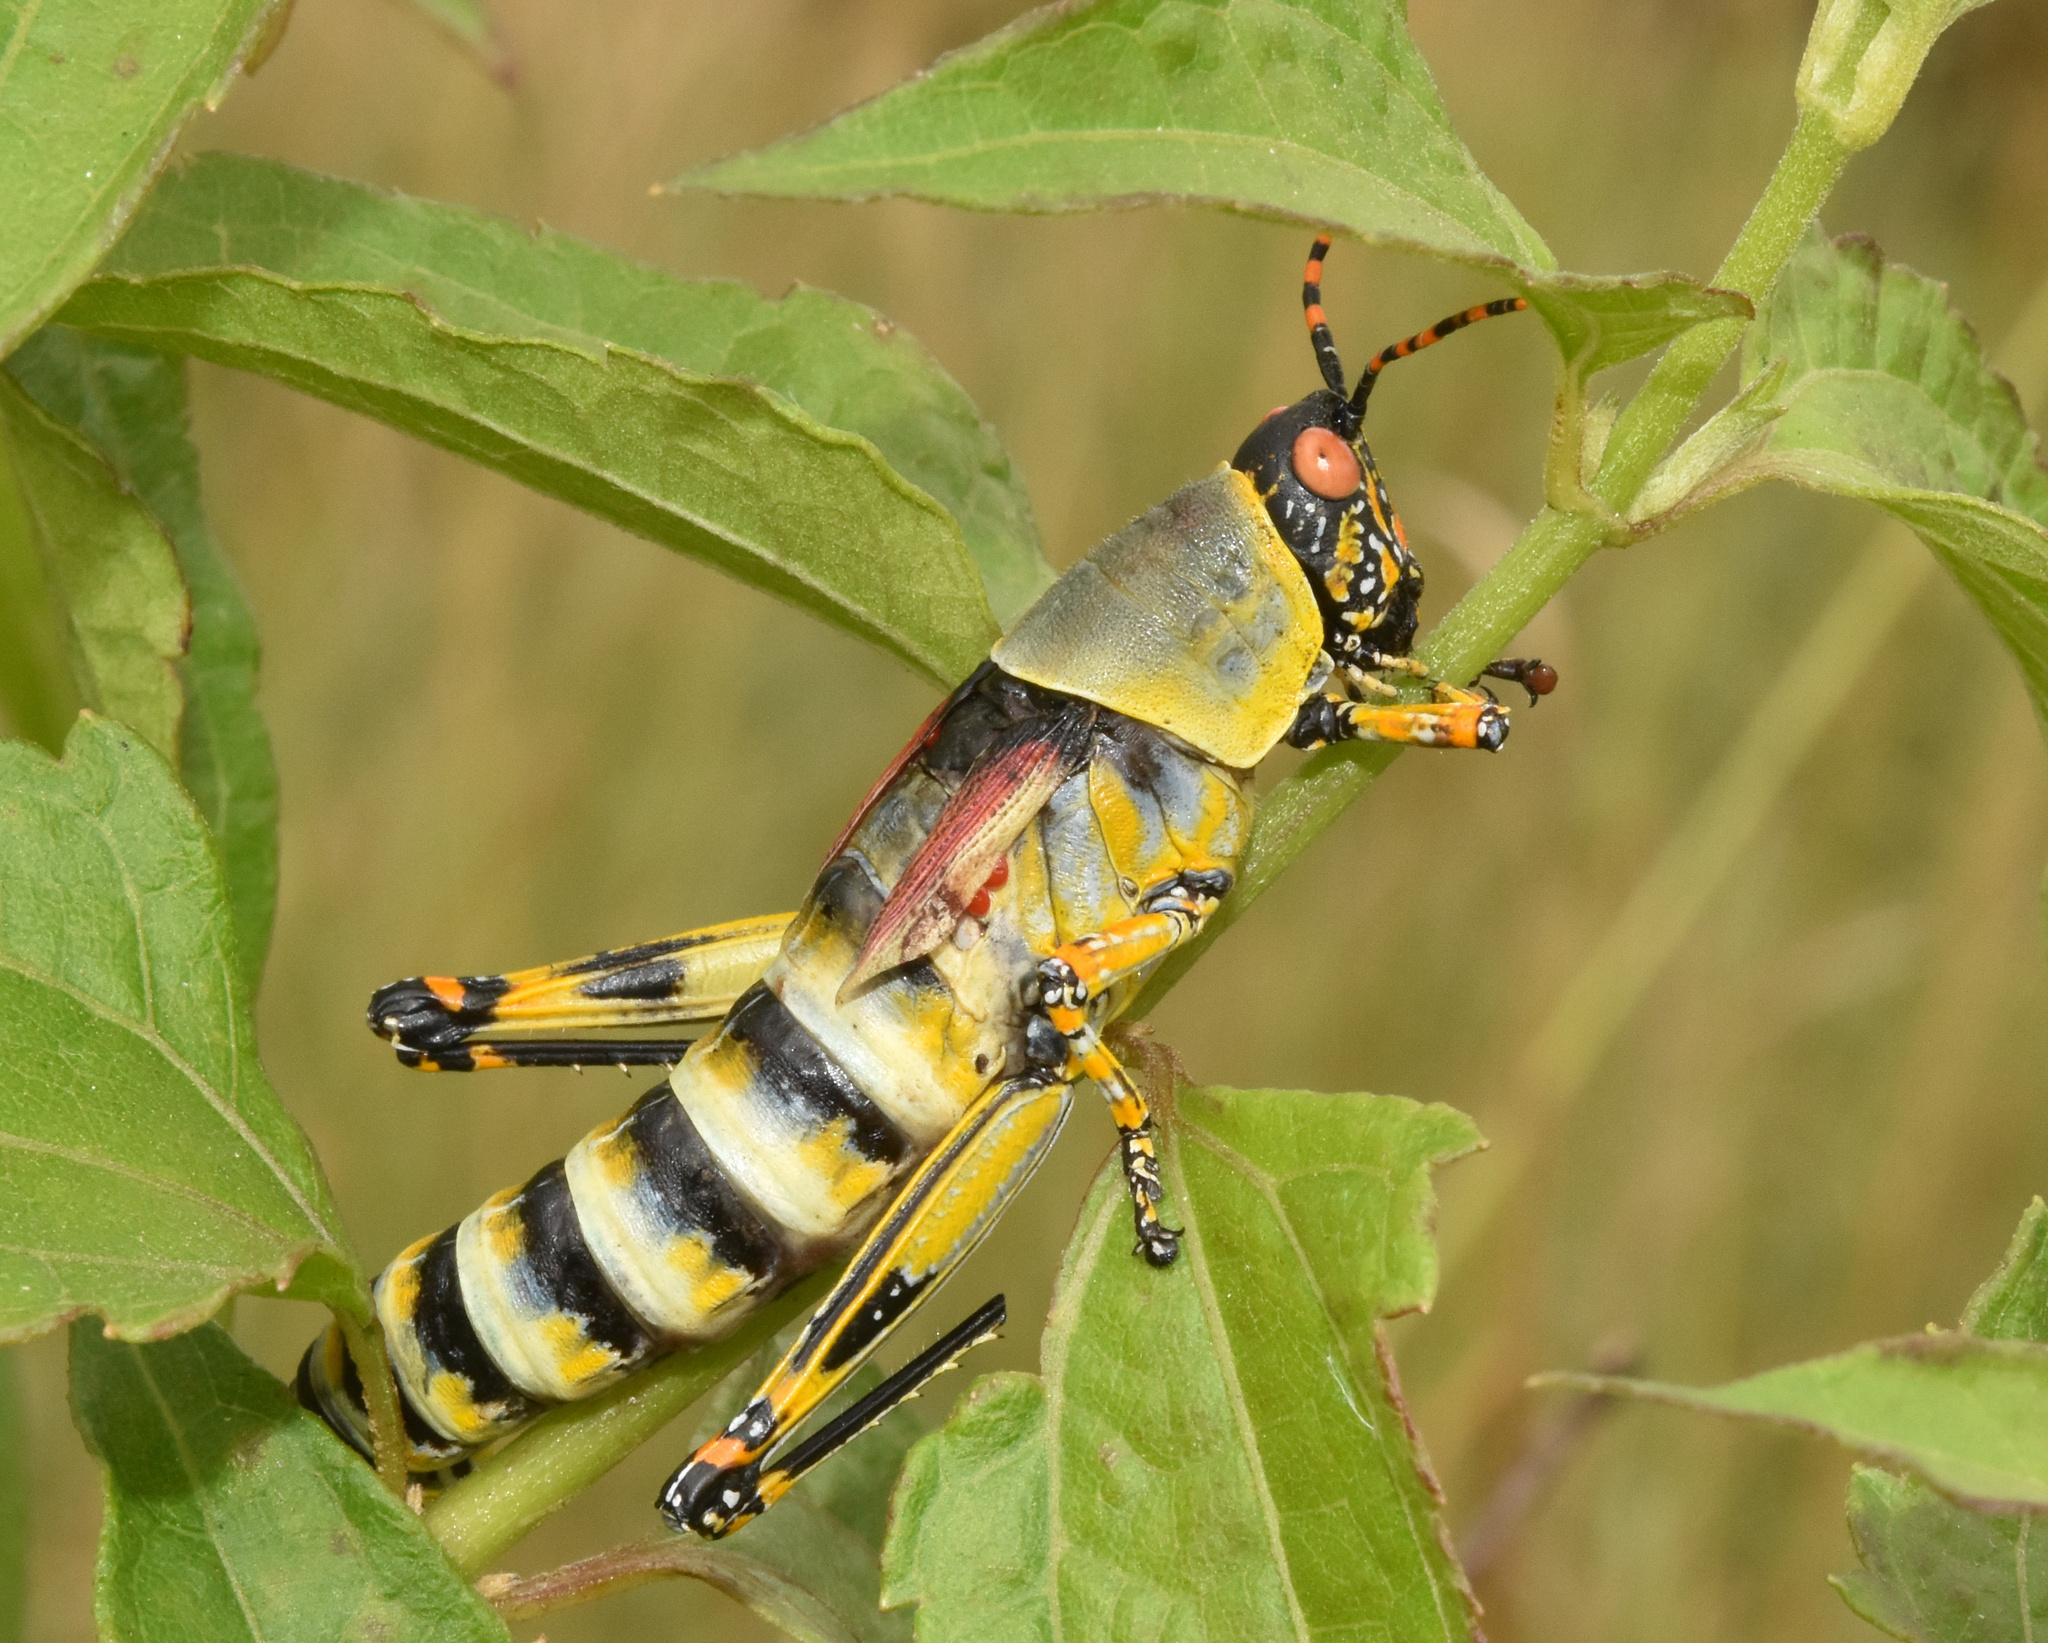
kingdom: Animalia
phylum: Arthropoda
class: Insecta
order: Orthoptera
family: Pyrgomorphidae
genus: Zonocerus
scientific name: Zonocerus elegans
